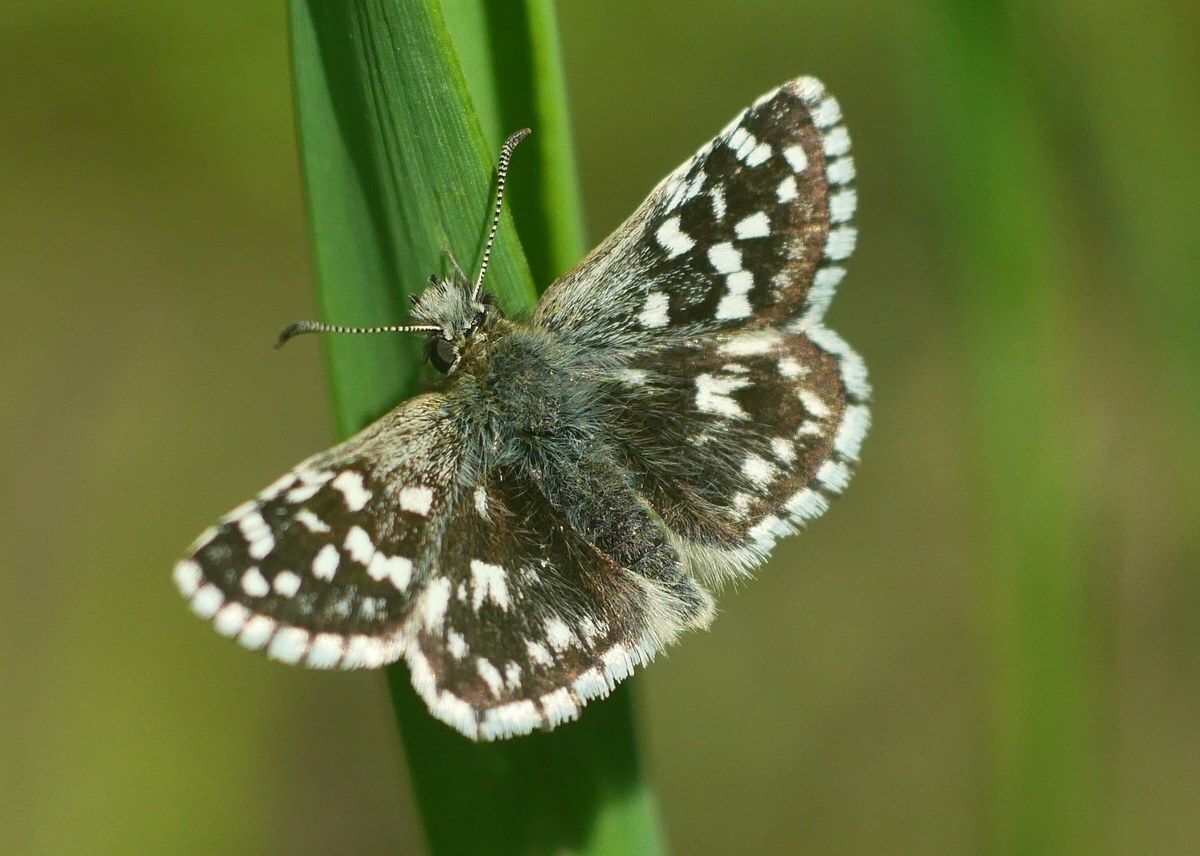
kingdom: Animalia
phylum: Arthropoda
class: Insecta
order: Lepidoptera
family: Hesperiidae
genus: Pyrgus
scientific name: Pyrgus malvae
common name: Grizzled skipper
